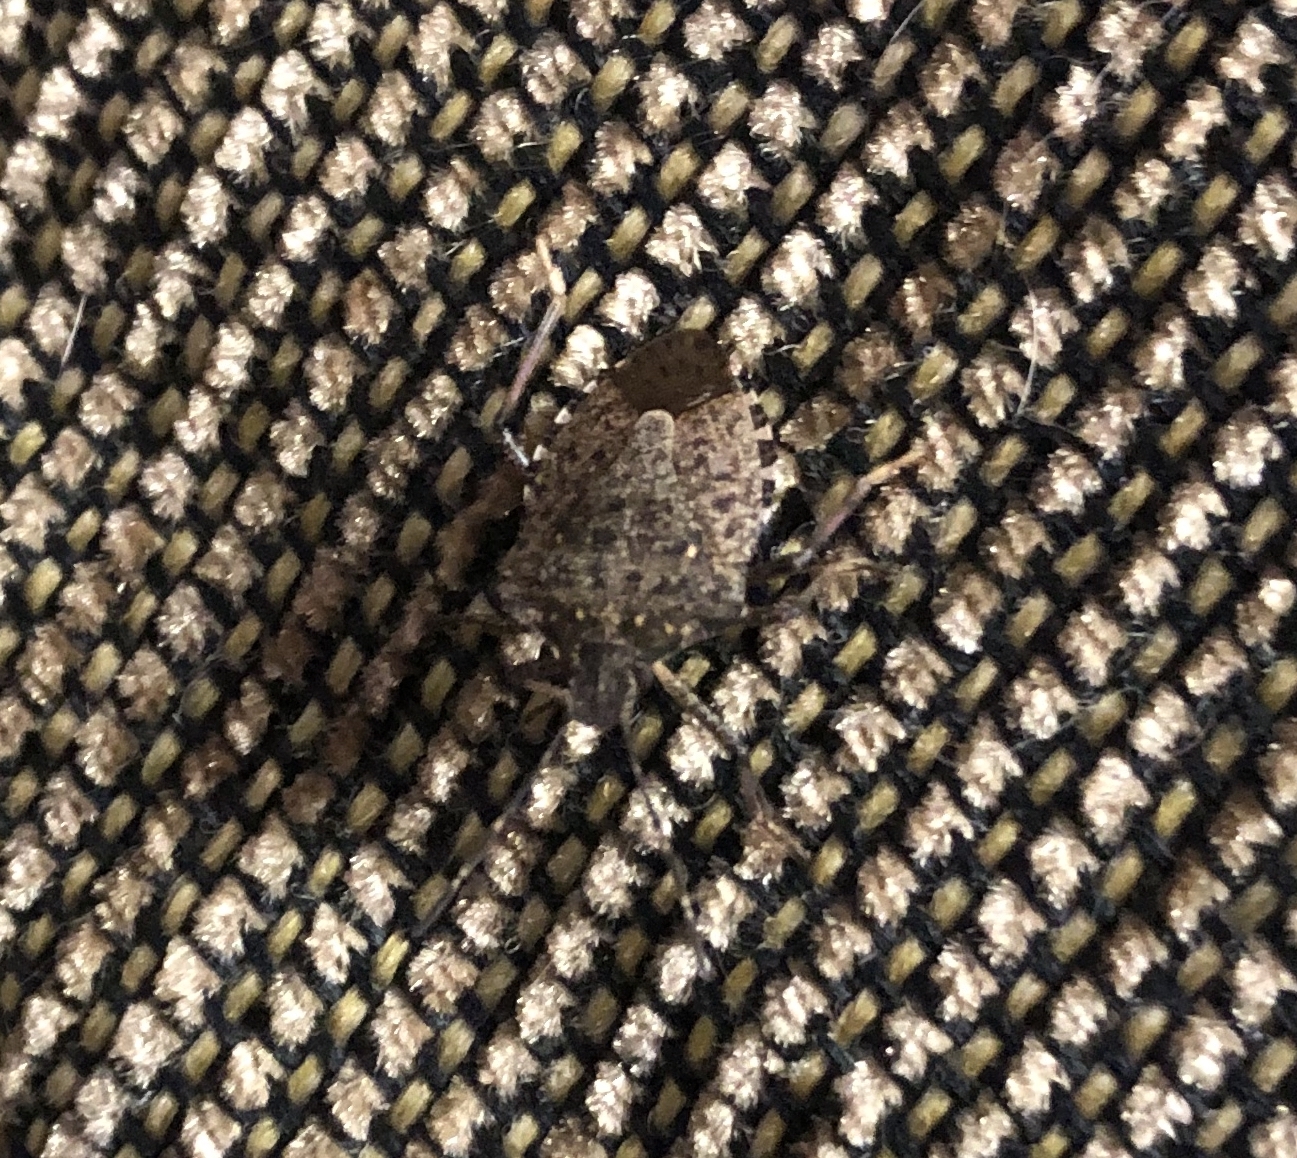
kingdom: Animalia
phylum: Arthropoda
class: Insecta
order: Hemiptera
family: Pentatomidae
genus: Halyomorpha
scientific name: Halyomorpha halys
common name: Brown marmorated stink bug
